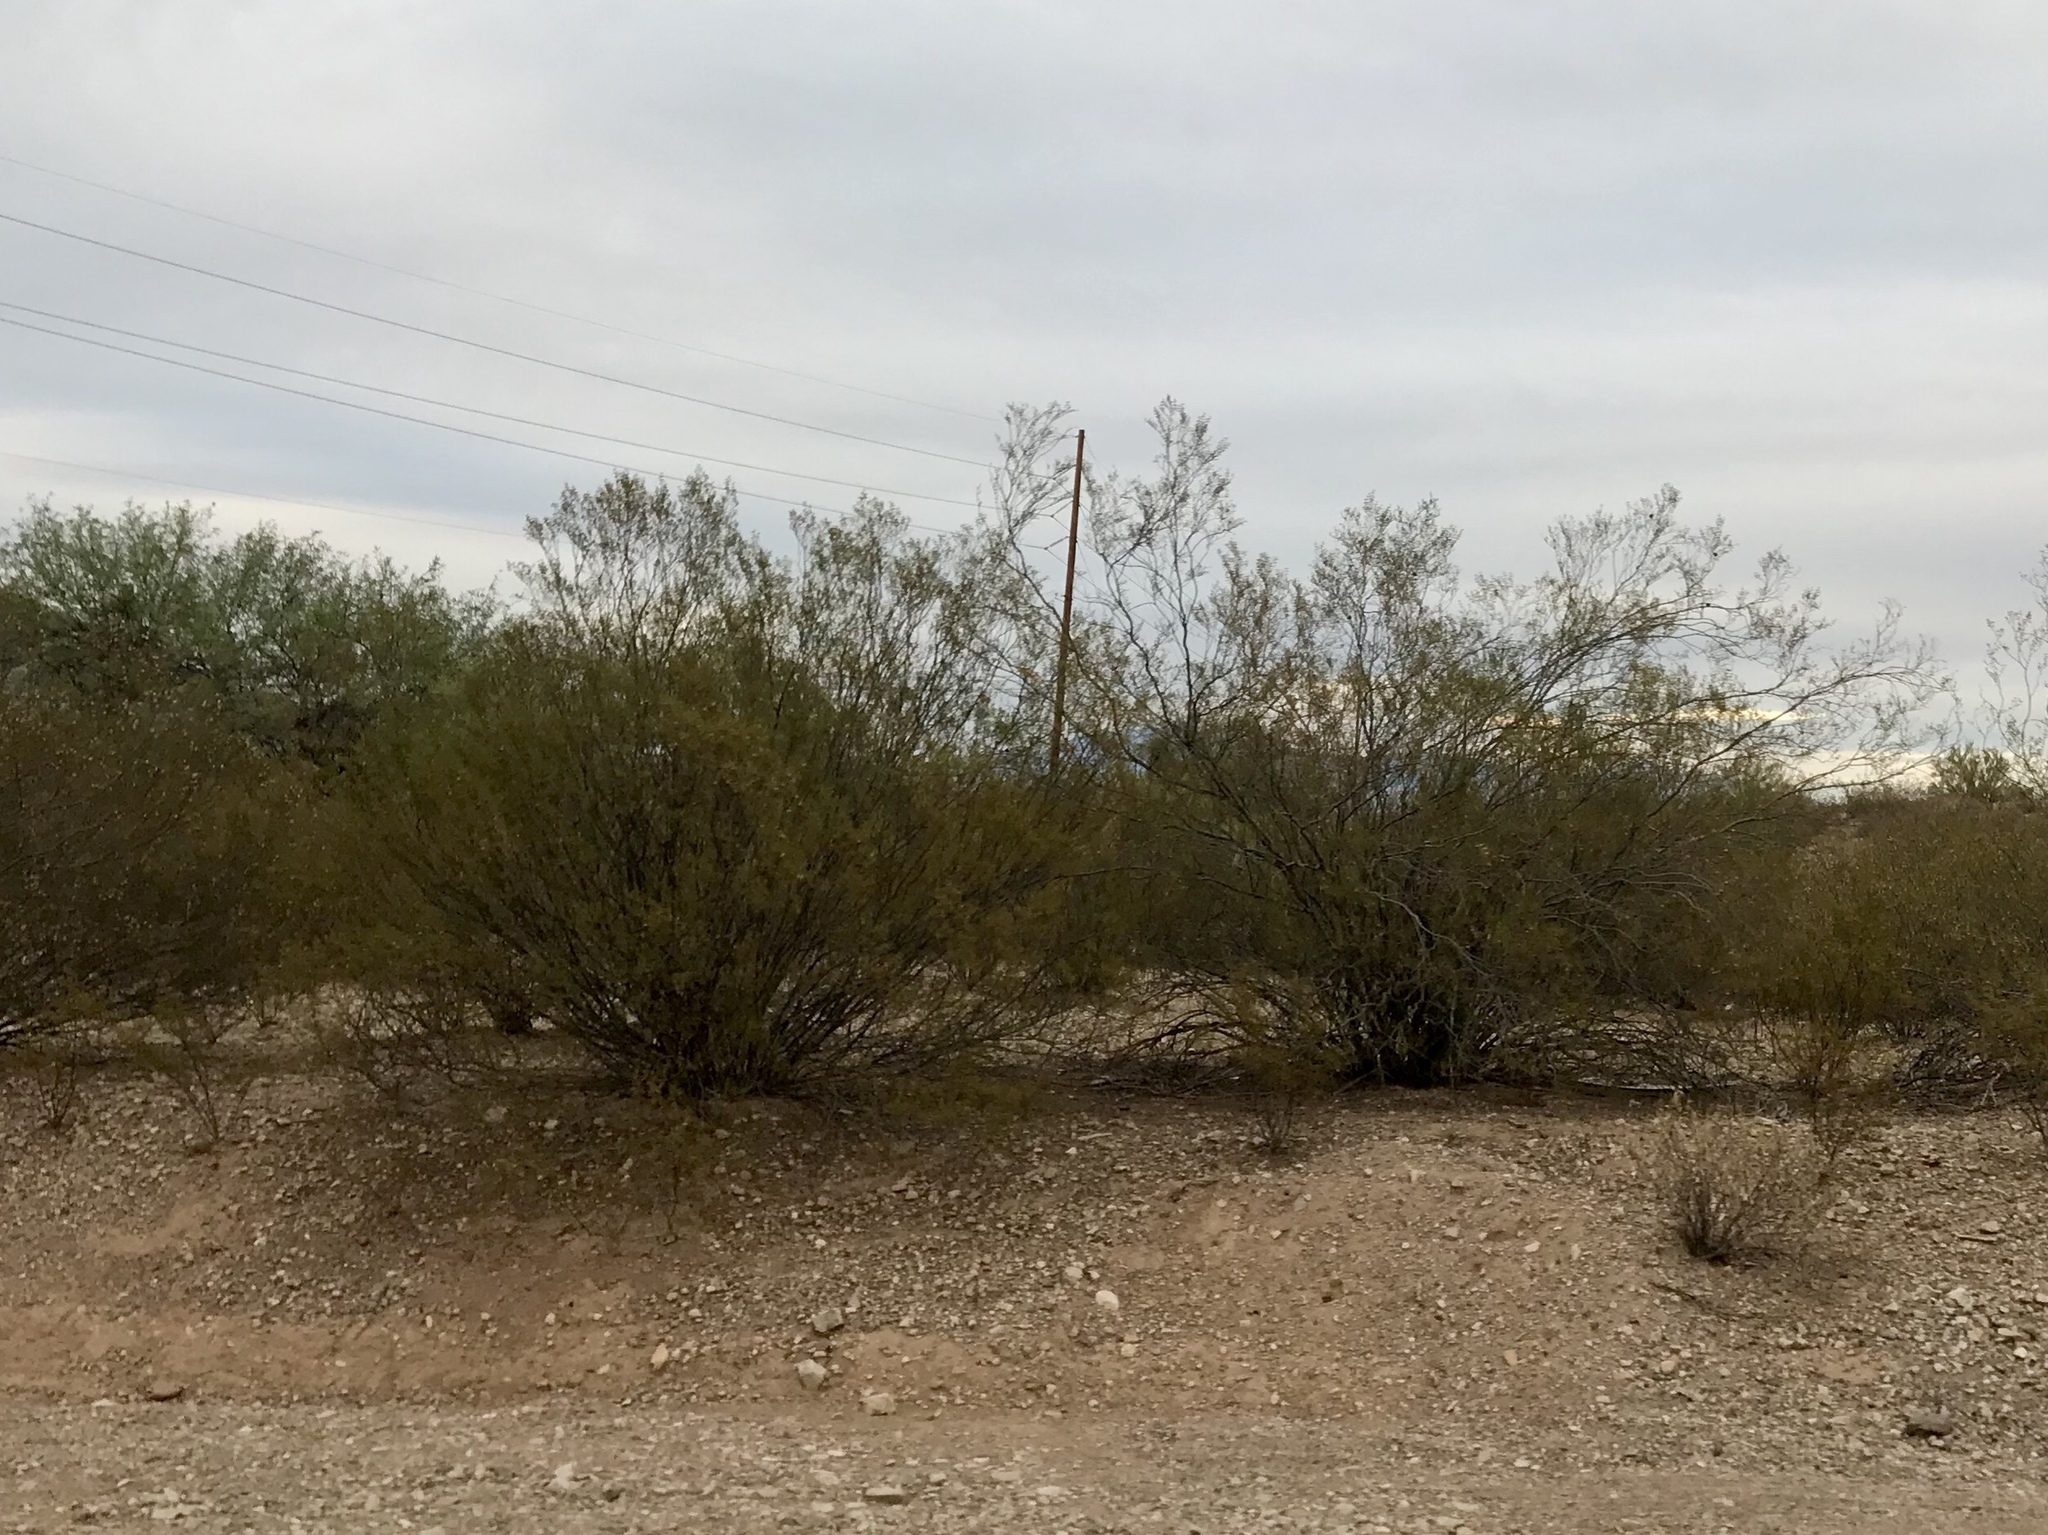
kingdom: Plantae
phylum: Tracheophyta
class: Magnoliopsida
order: Zygophyllales
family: Zygophyllaceae
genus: Larrea
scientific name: Larrea tridentata
